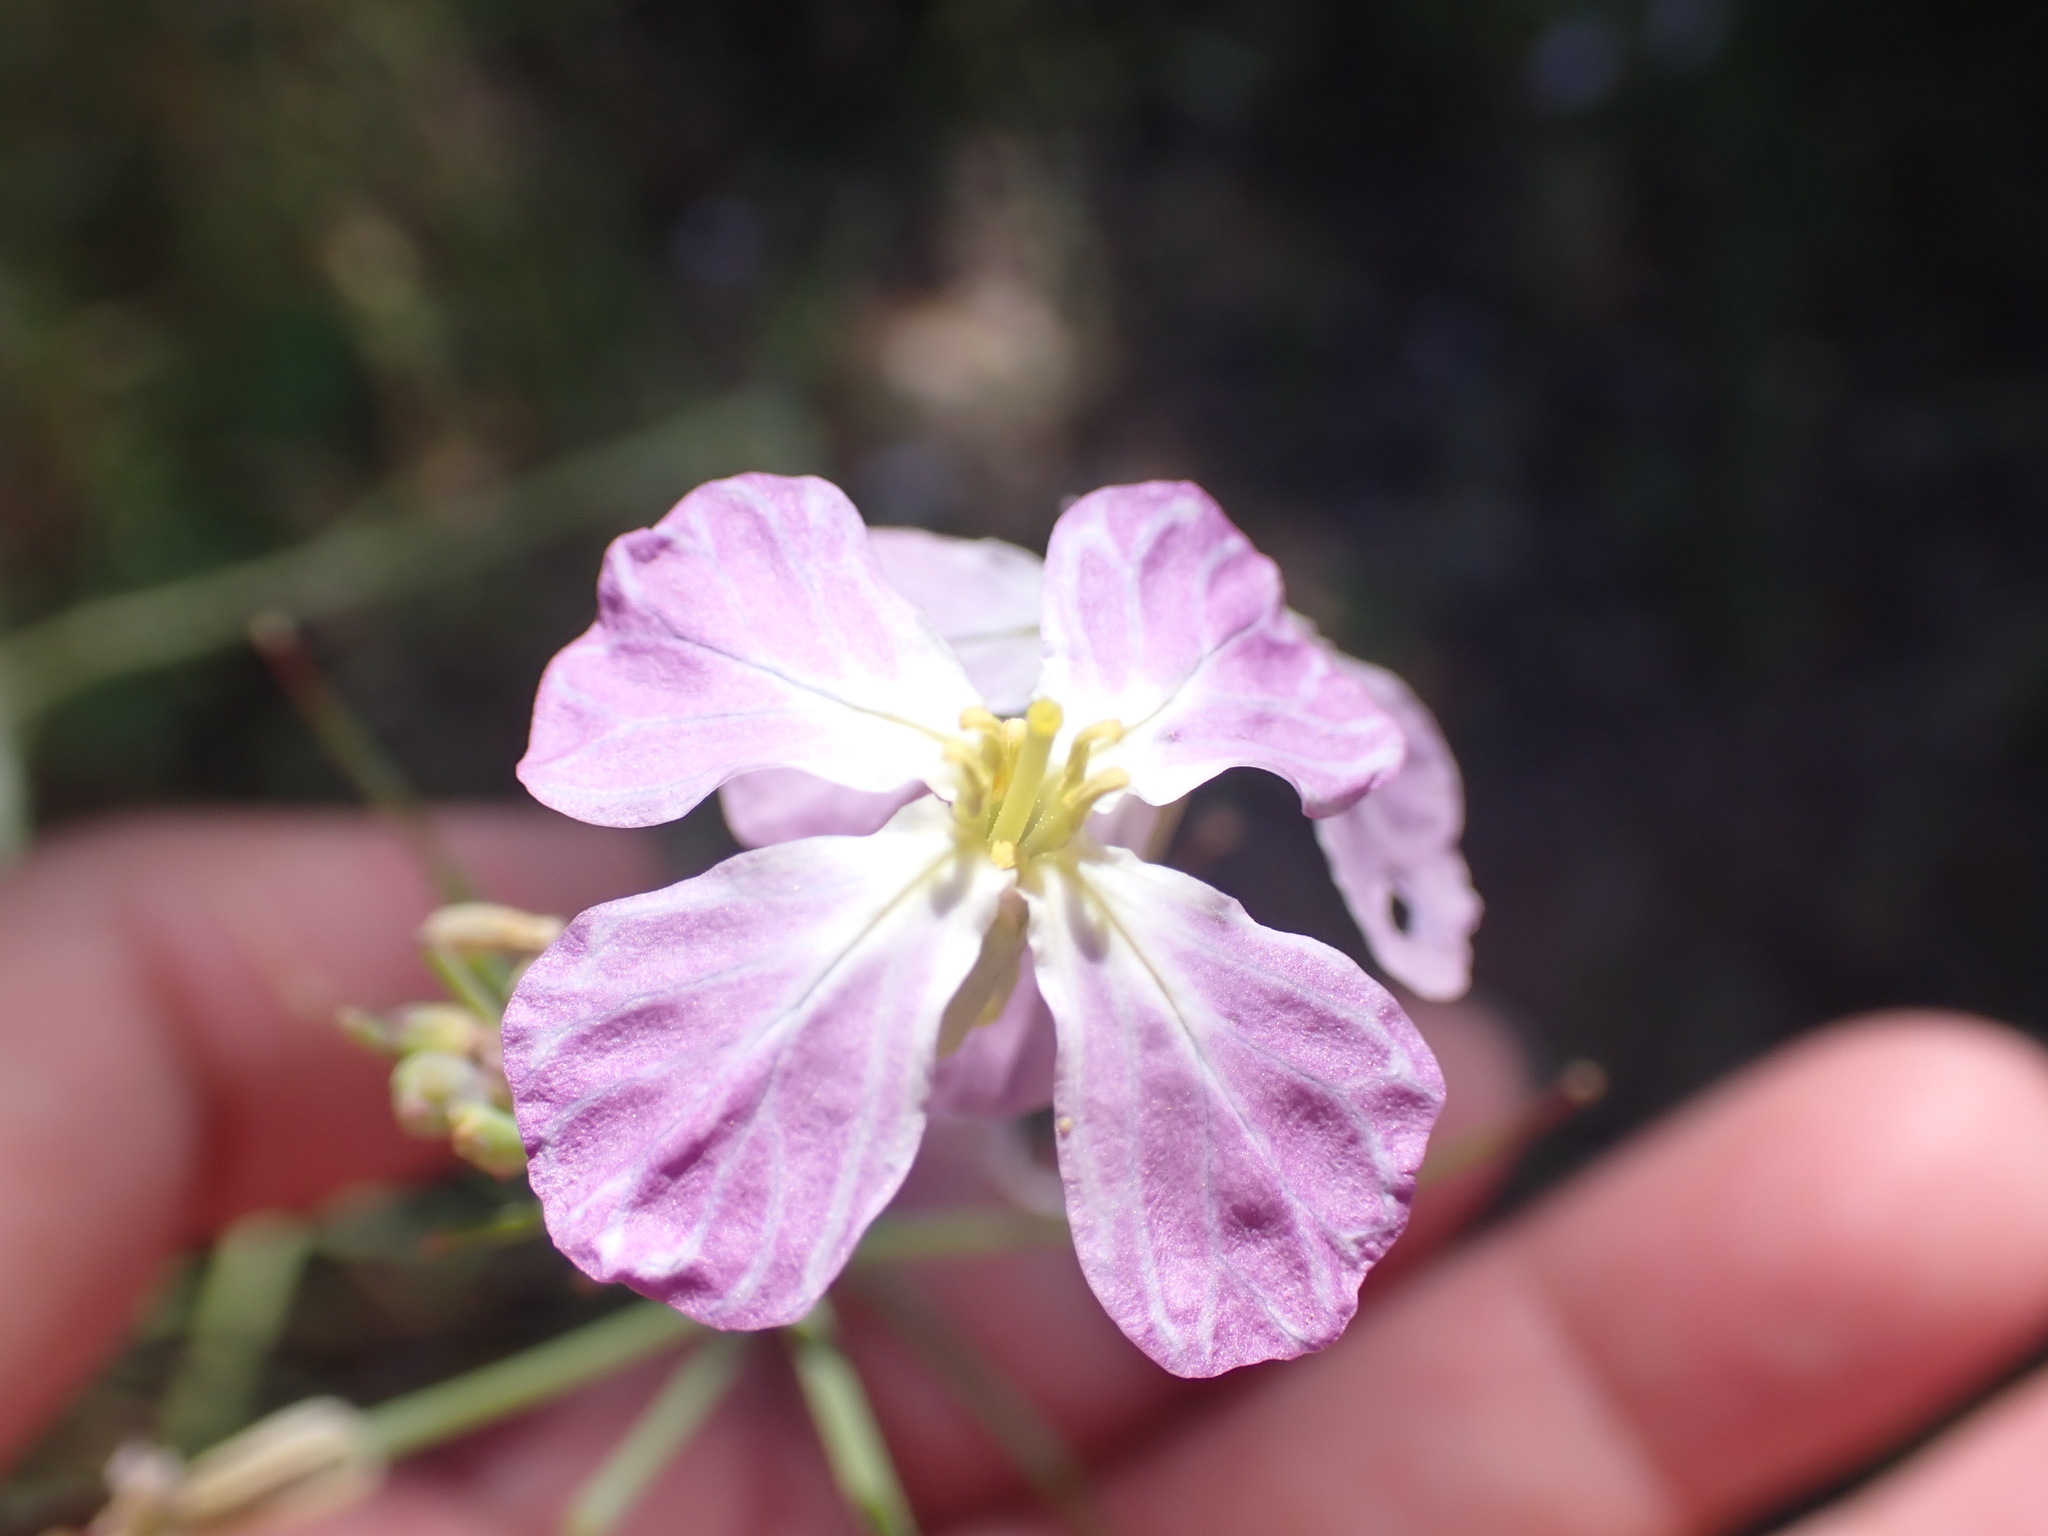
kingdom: Plantae
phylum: Tracheophyta
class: Magnoliopsida
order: Brassicales
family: Brassicaceae
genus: Raphanus
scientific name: Raphanus sativus
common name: Cultivated radish
